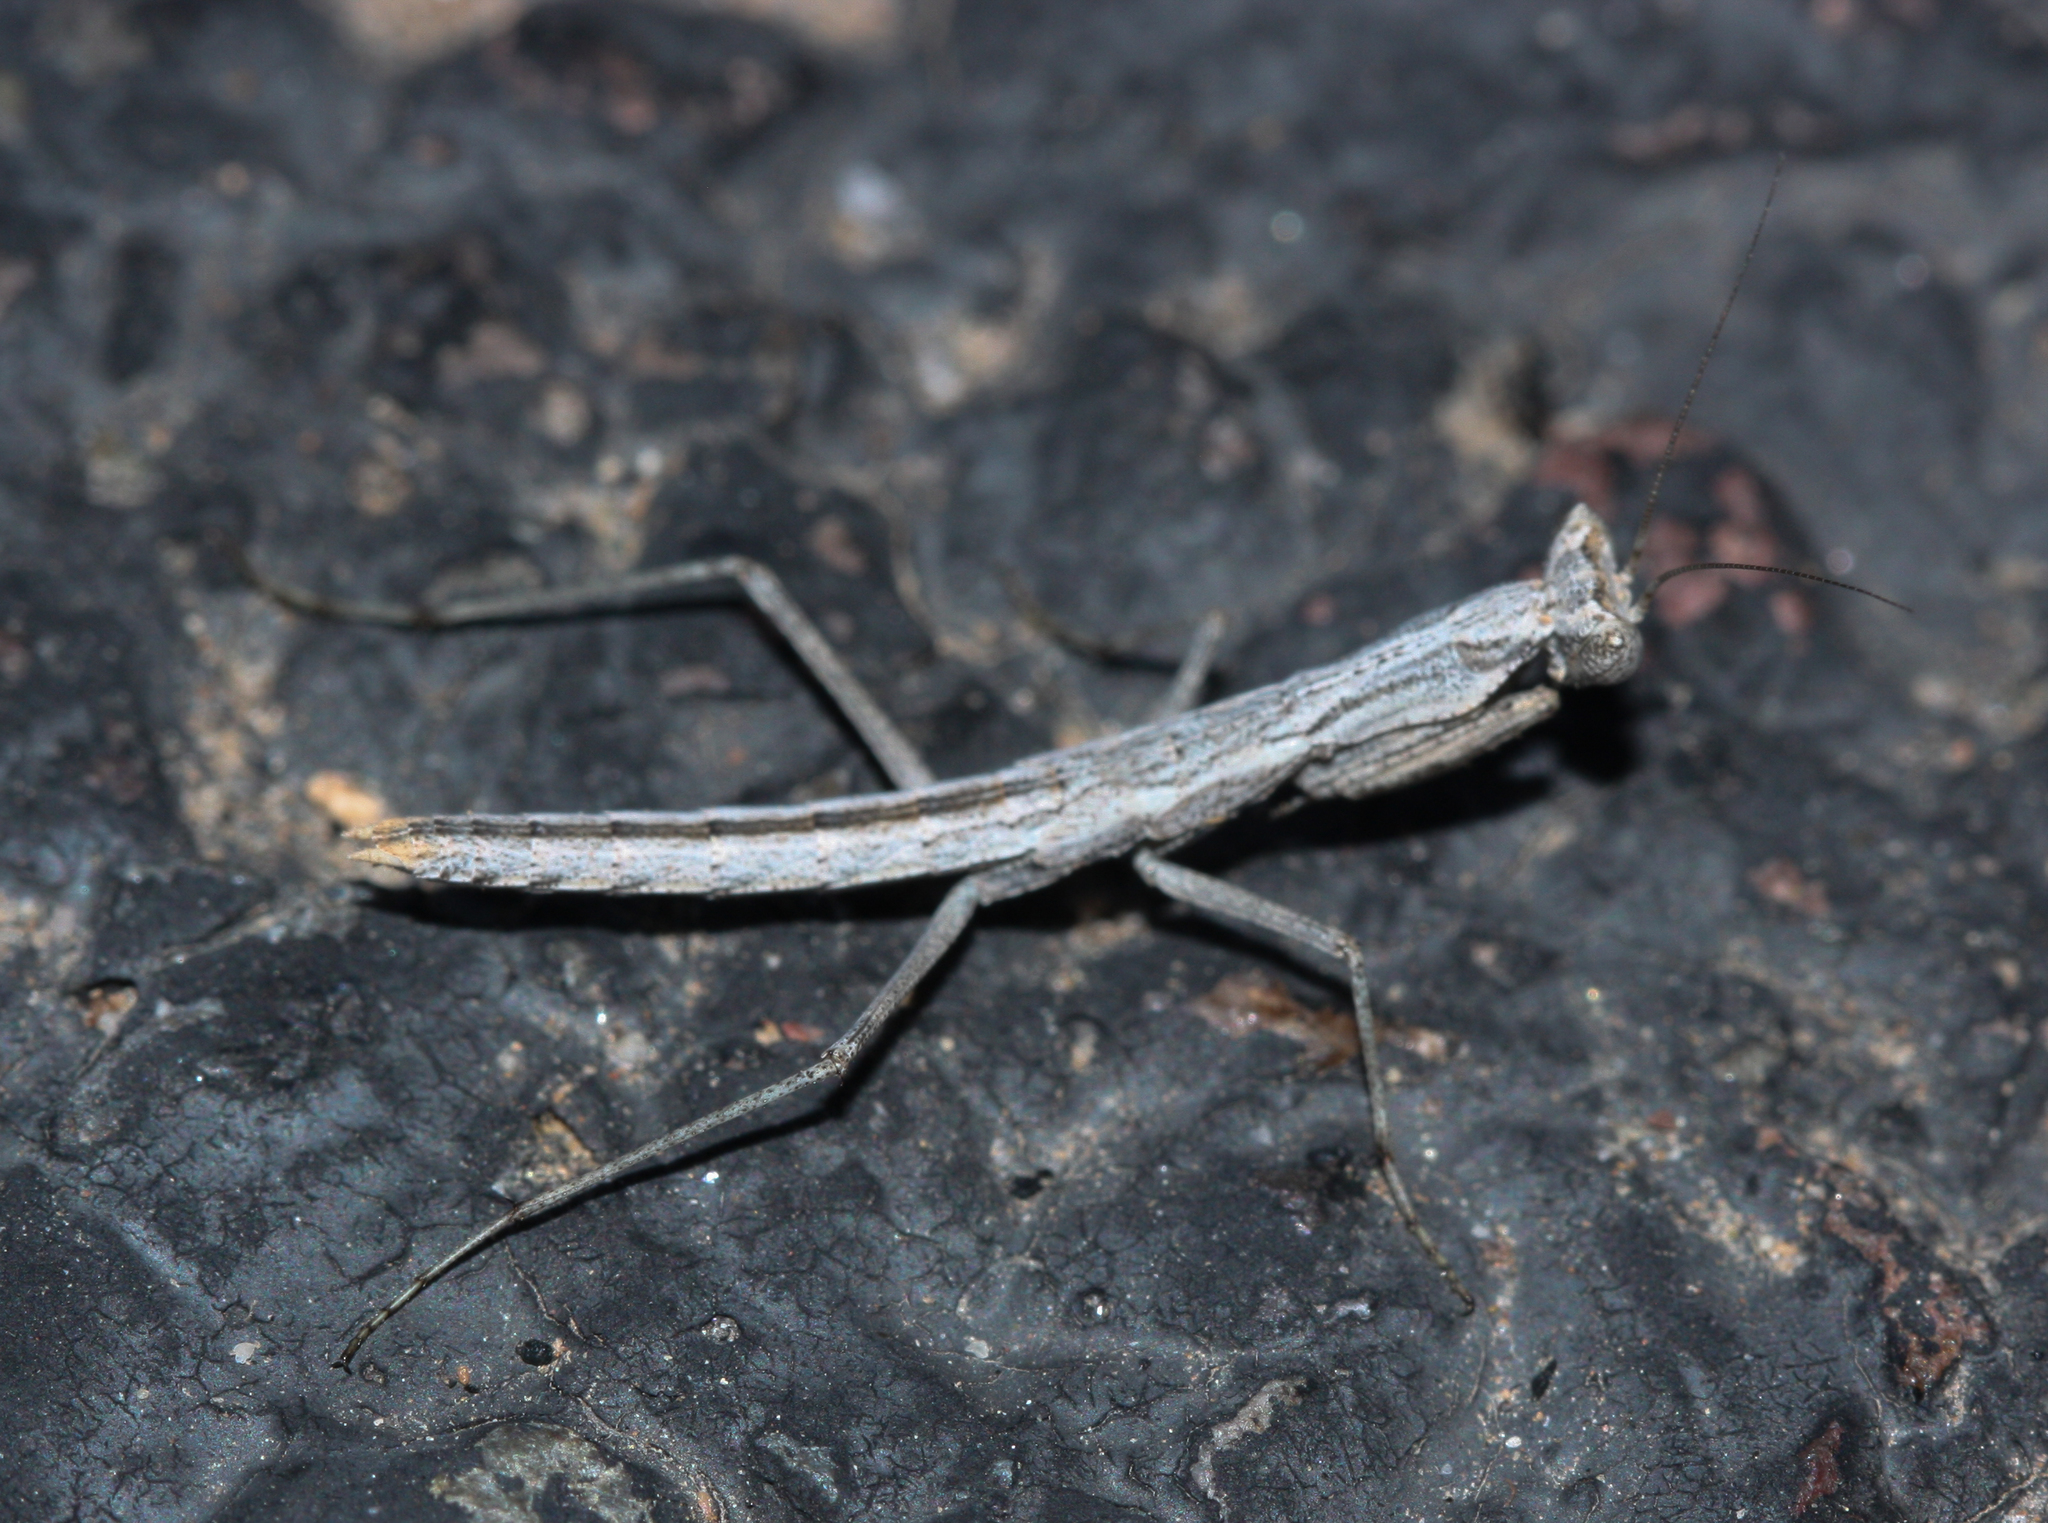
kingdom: Animalia
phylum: Arthropoda
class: Insecta
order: Mantodea
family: Amelidae
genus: Litaneutria
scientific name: Litaneutria ocularis
